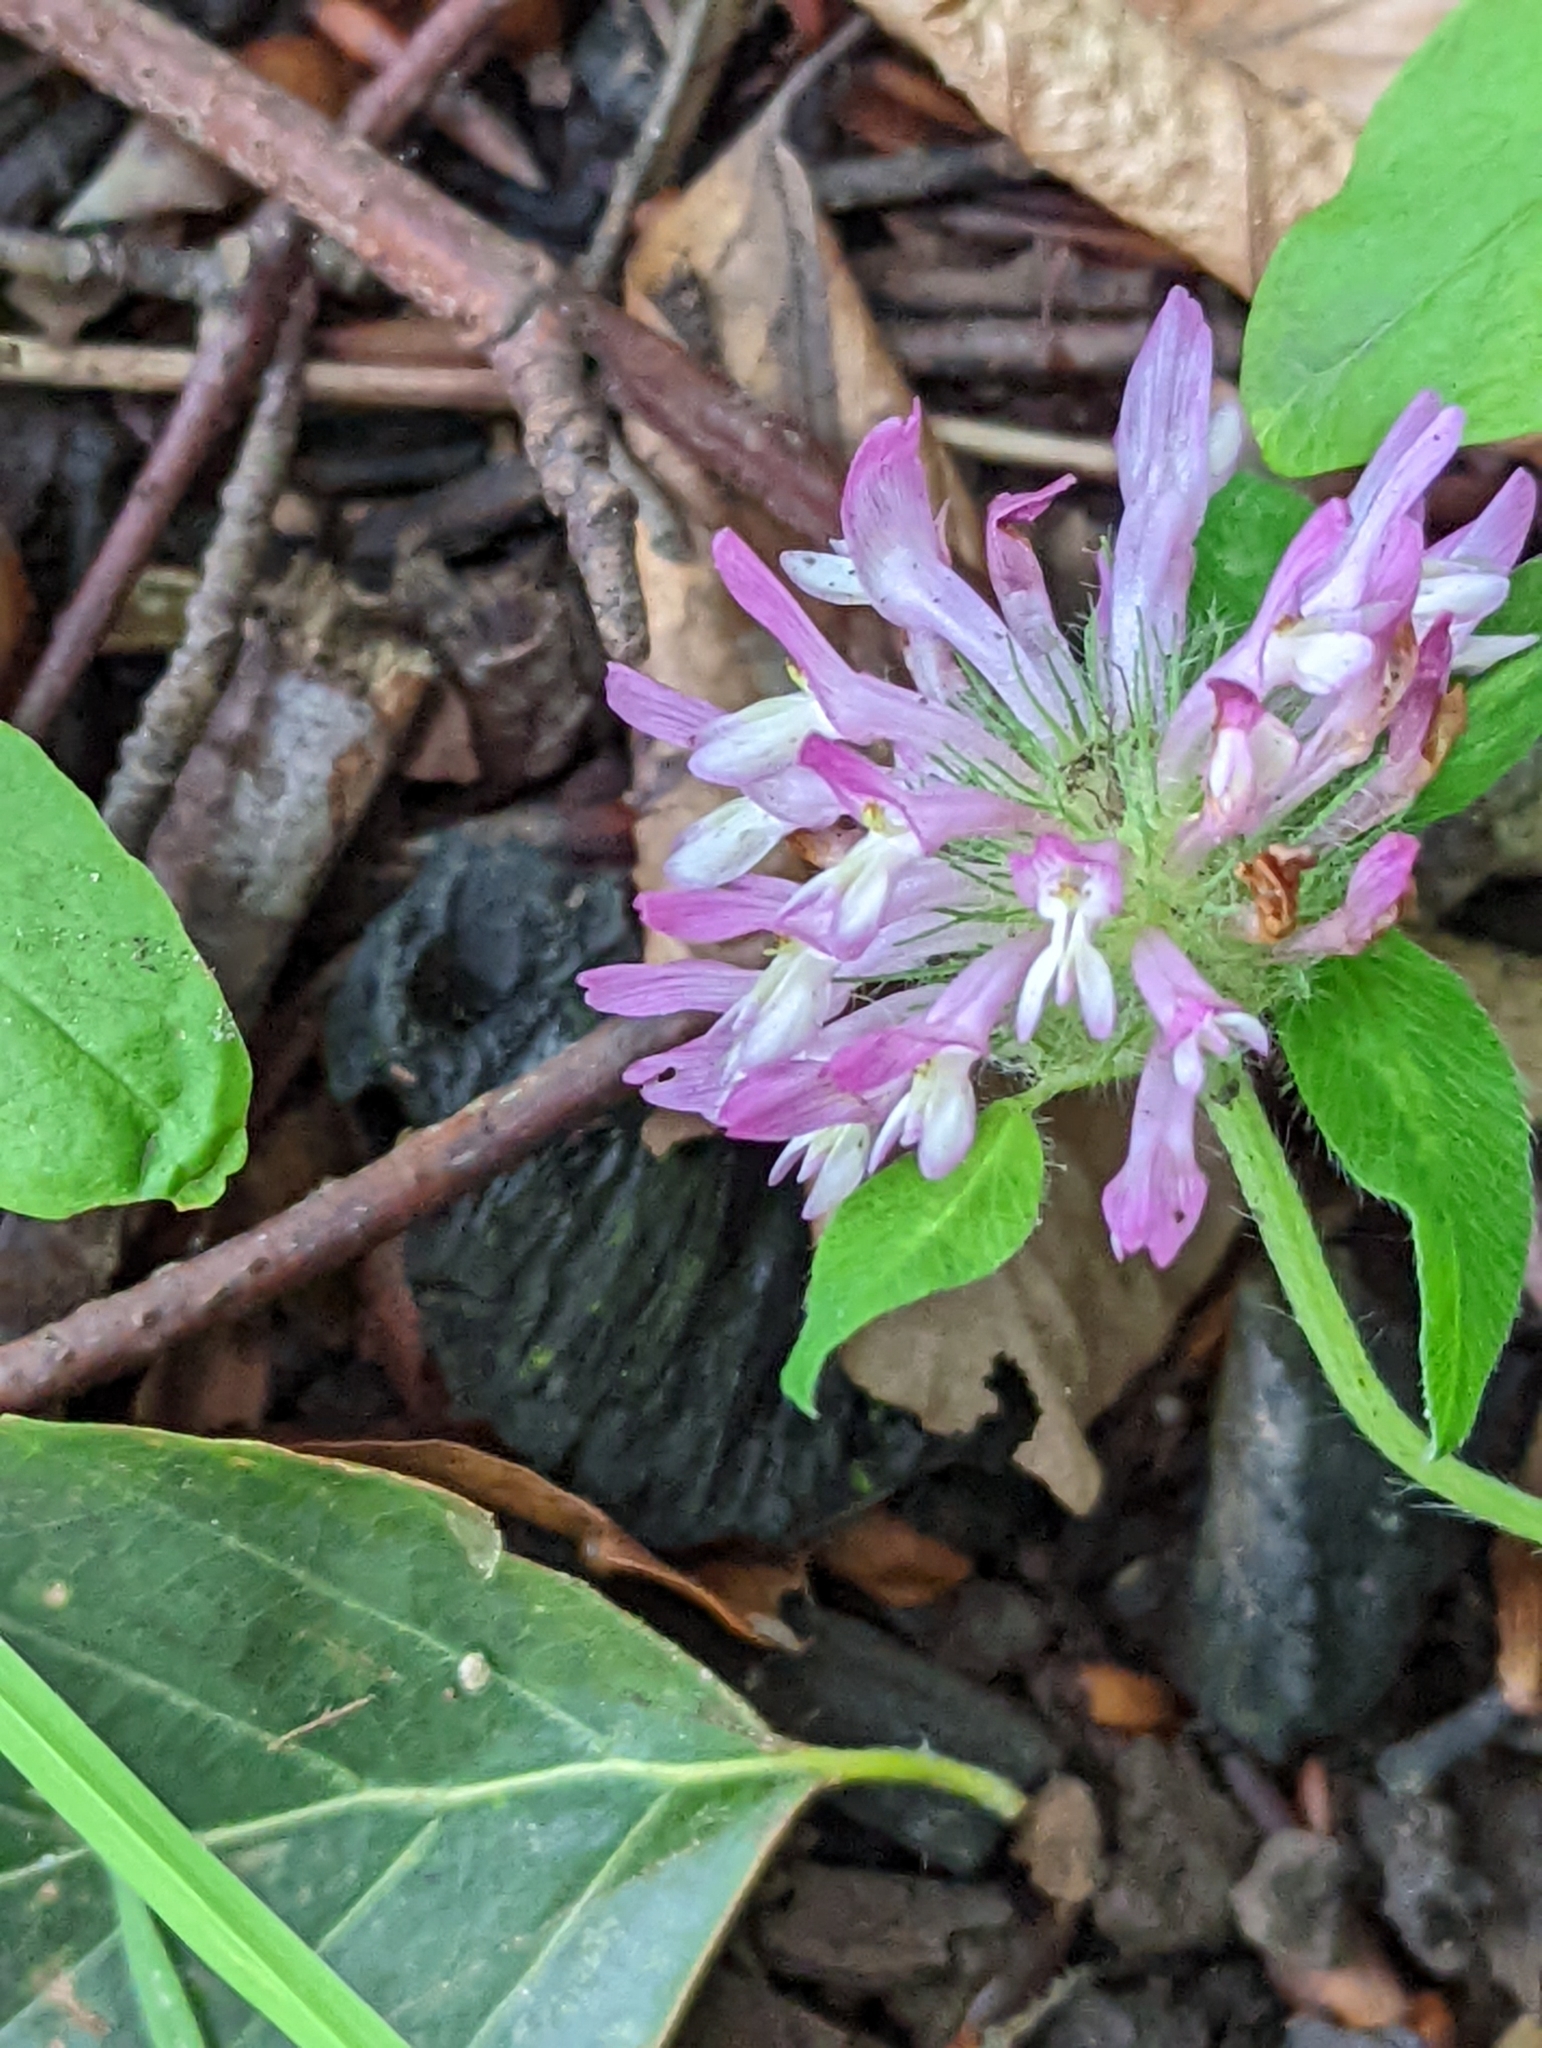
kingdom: Plantae
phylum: Tracheophyta
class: Magnoliopsida
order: Fabales
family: Fabaceae
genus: Trifolium
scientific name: Trifolium pratense
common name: Red clover
